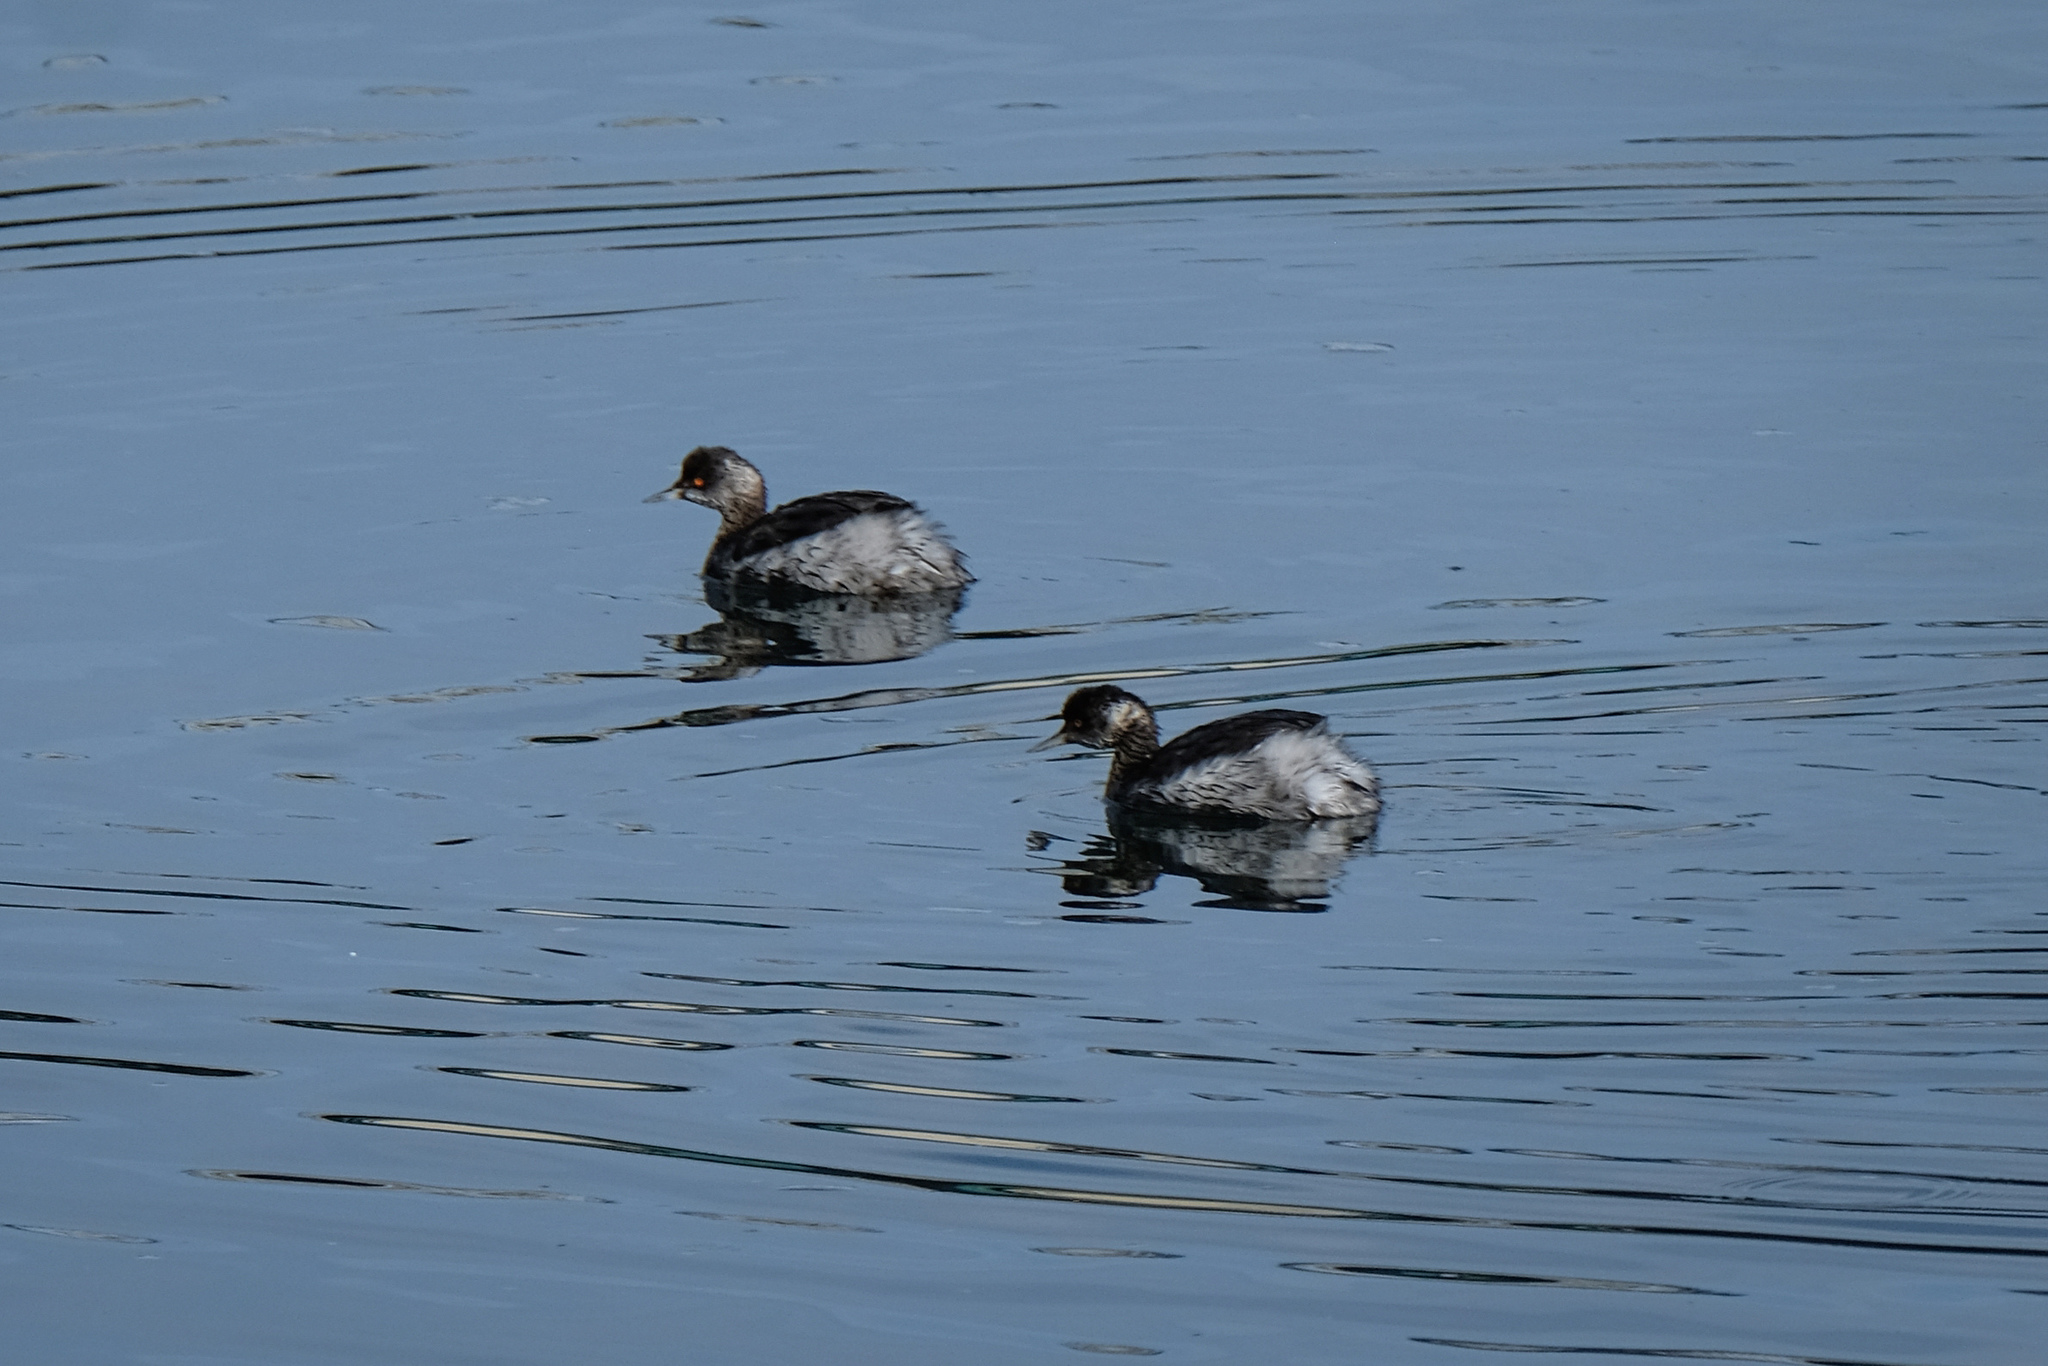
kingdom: Animalia
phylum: Chordata
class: Aves
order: Podicipediformes
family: Podicipedidae
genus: Podiceps
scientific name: Podiceps nigricollis
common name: Black-necked grebe
